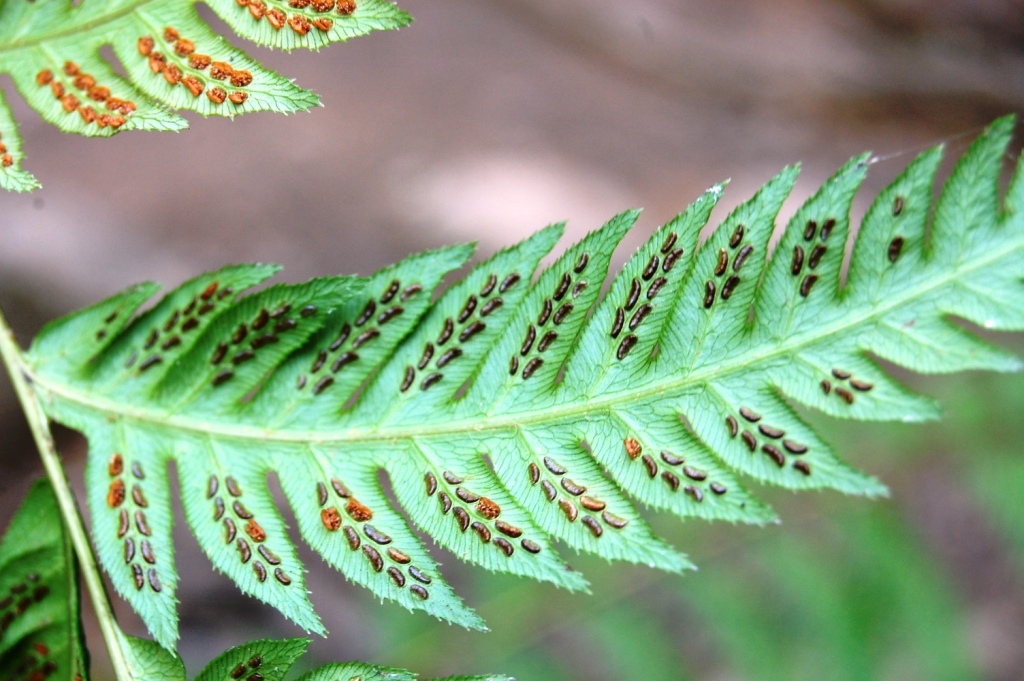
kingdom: Plantae
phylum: Tracheophyta
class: Polypodiopsida
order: Polypodiales
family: Blechnaceae
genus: Woodwardia
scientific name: Woodwardia fimbriata
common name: Giant chain fern
